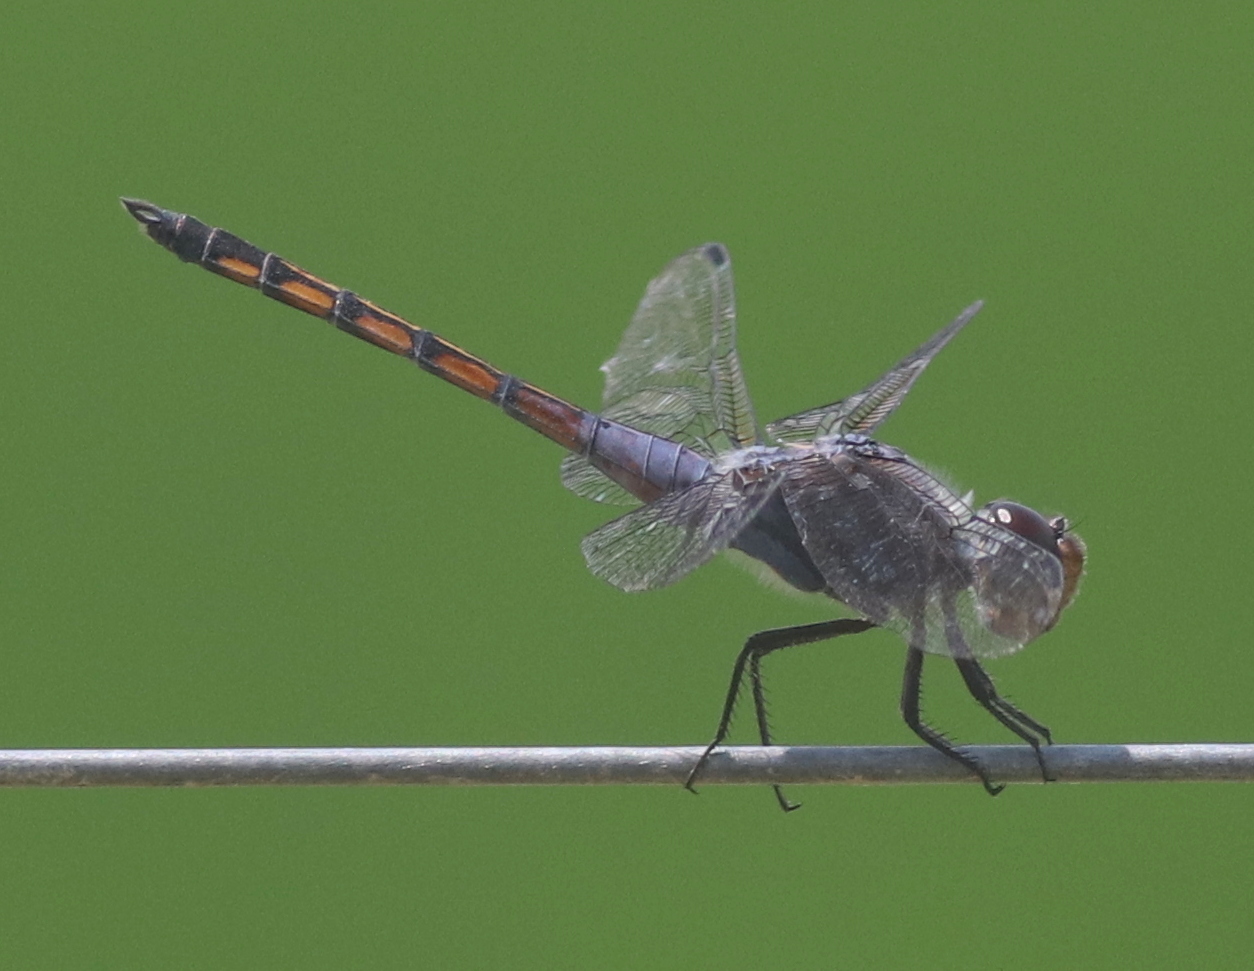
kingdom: Animalia
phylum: Arthropoda
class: Insecta
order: Odonata
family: Libellulidae
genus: Potamarcha
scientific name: Potamarcha congener
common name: Blue chaser
